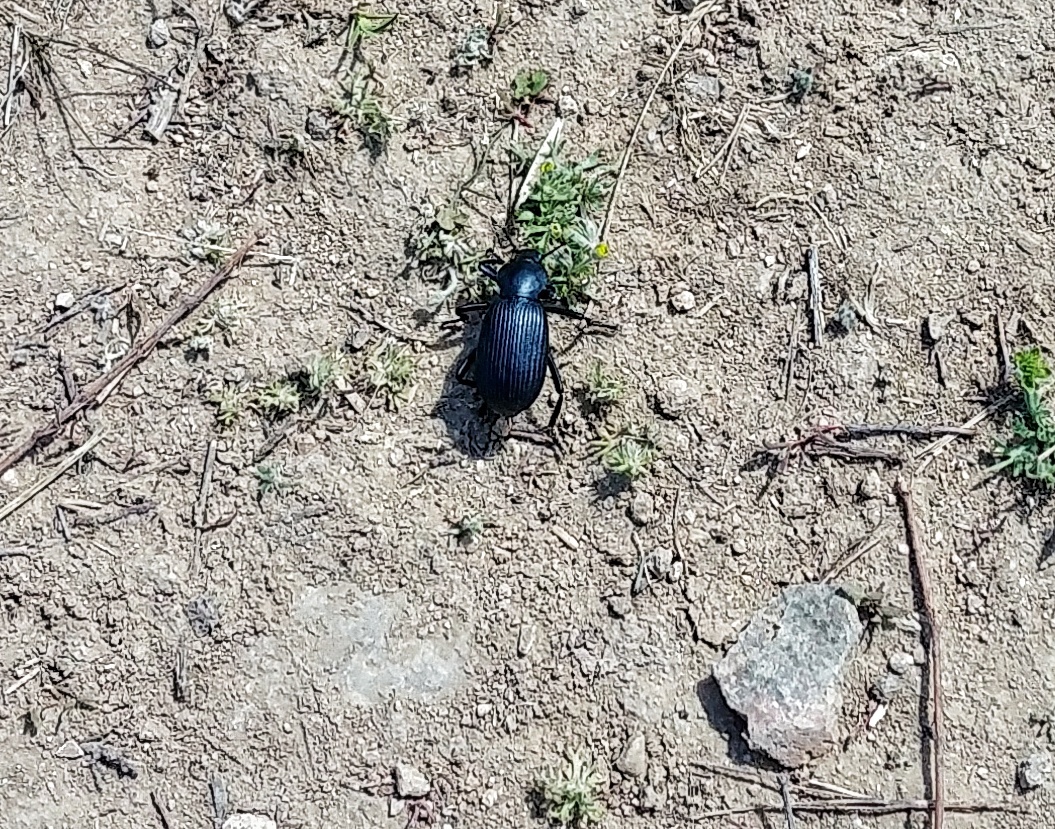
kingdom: Animalia
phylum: Arthropoda
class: Insecta
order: Coleoptera
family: Tenebrionidae
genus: Eleodes
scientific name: Eleodes obscura
